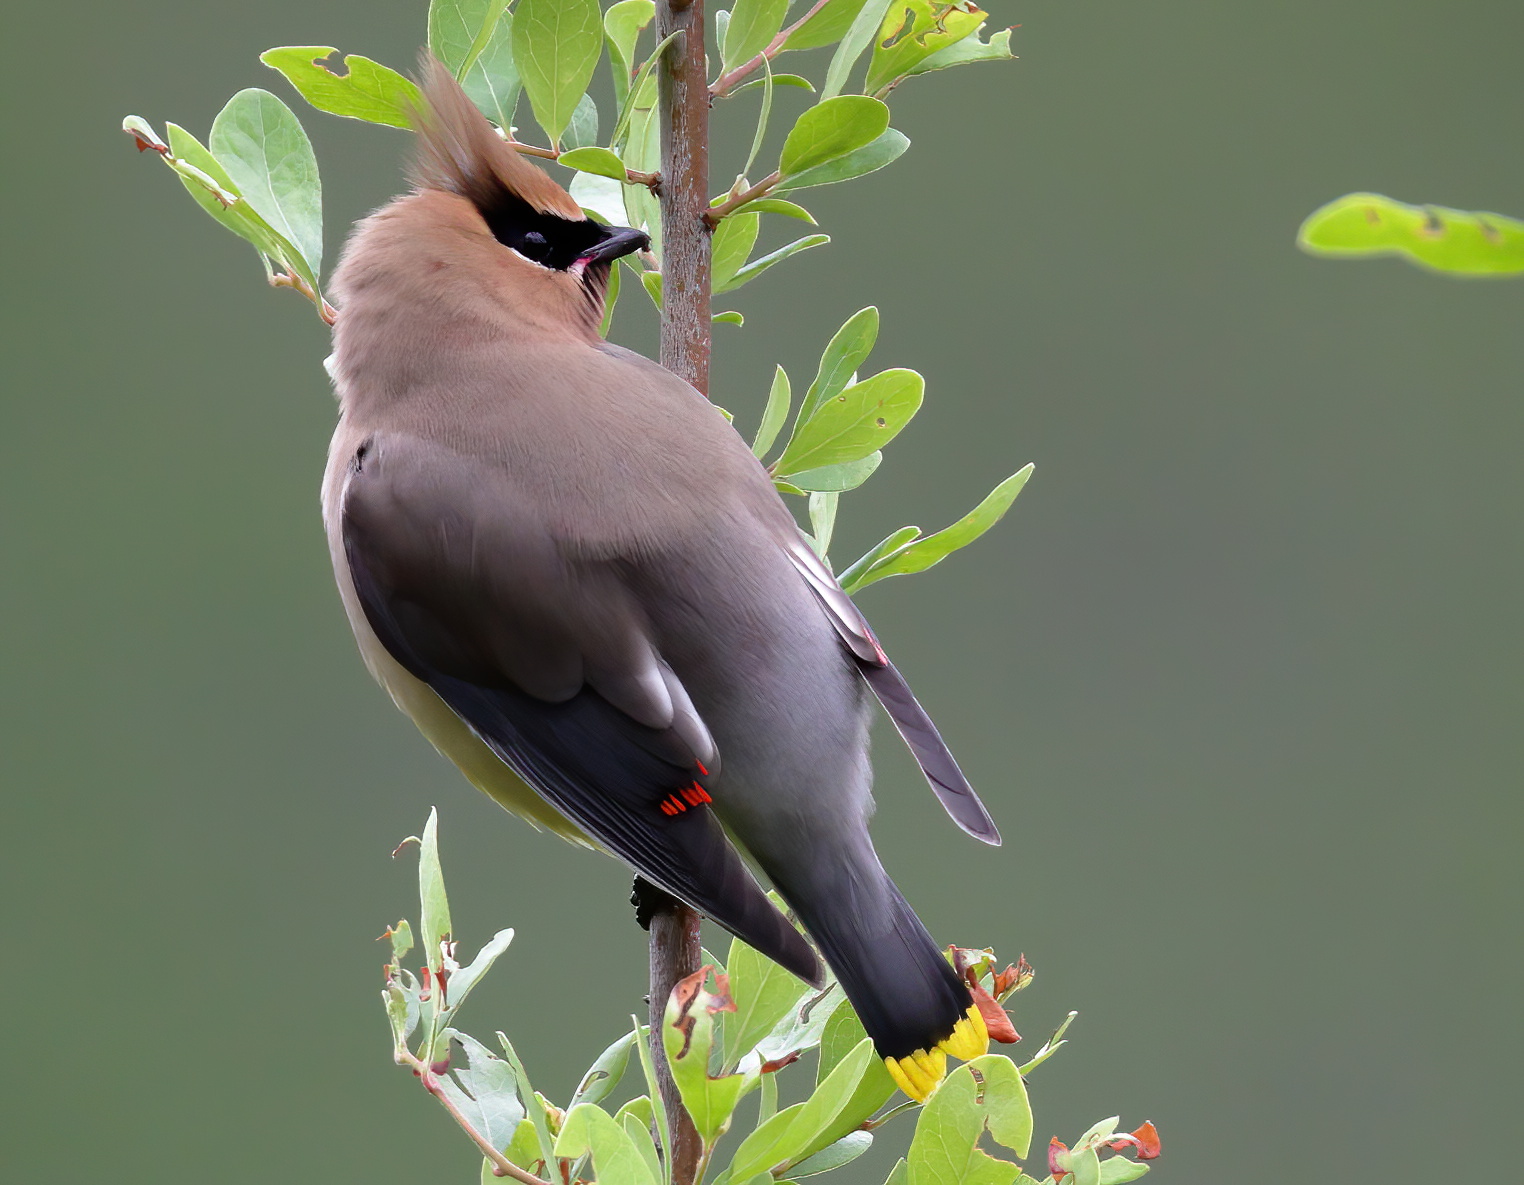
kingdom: Animalia
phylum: Chordata
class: Aves
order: Passeriformes
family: Bombycillidae
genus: Bombycilla
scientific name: Bombycilla cedrorum
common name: Cedar waxwing
